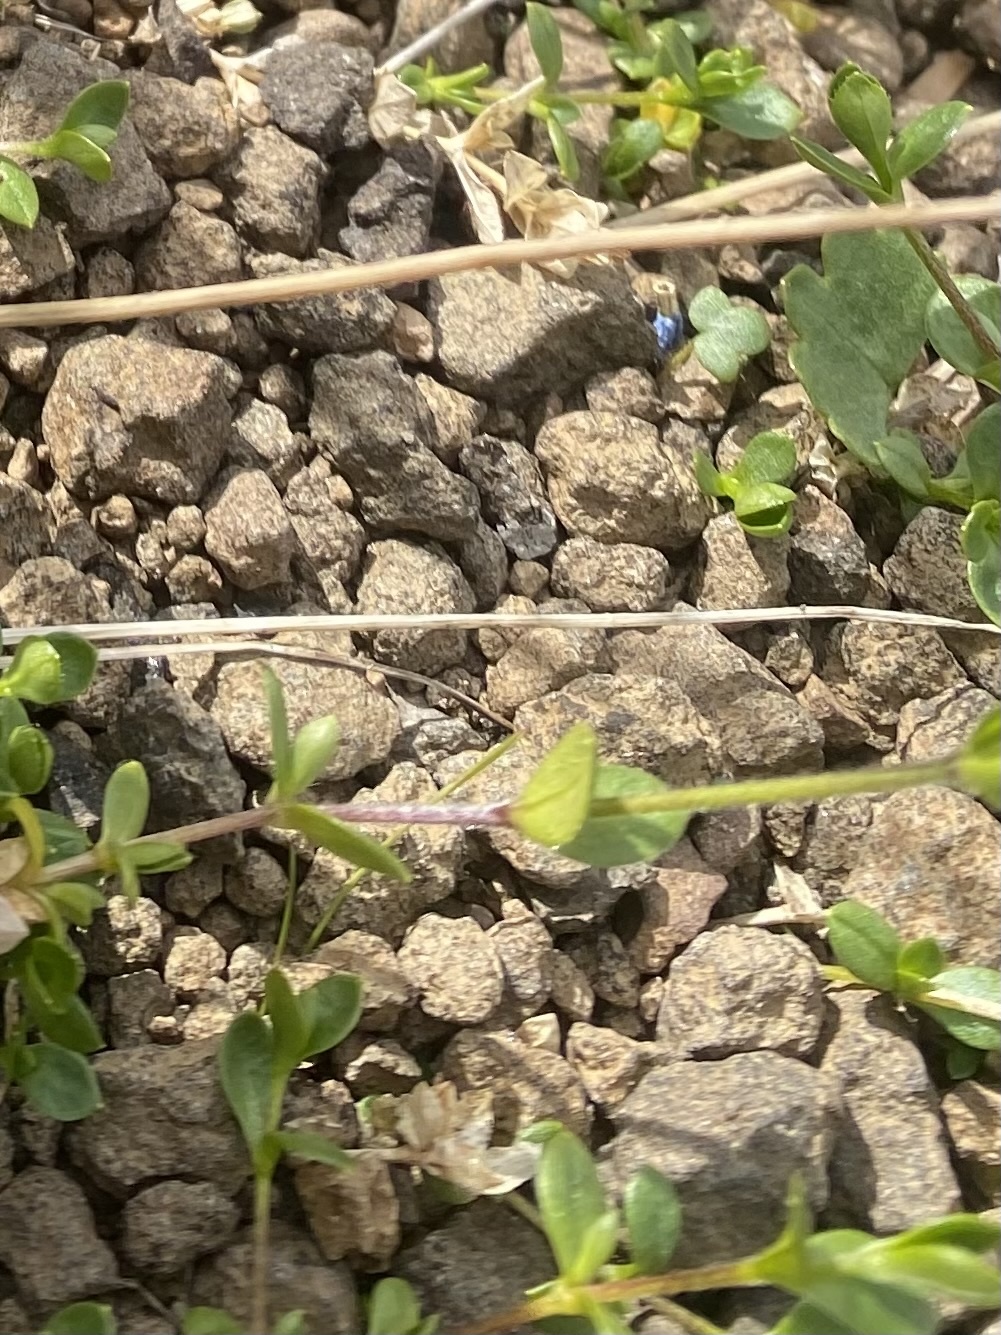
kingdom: Plantae
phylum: Tracheophyta
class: Magnoliopsida
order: Caryophyllales
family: Caryophyllaceae
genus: Cerastium
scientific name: Cerastium regelii
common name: Regel's chickweed
